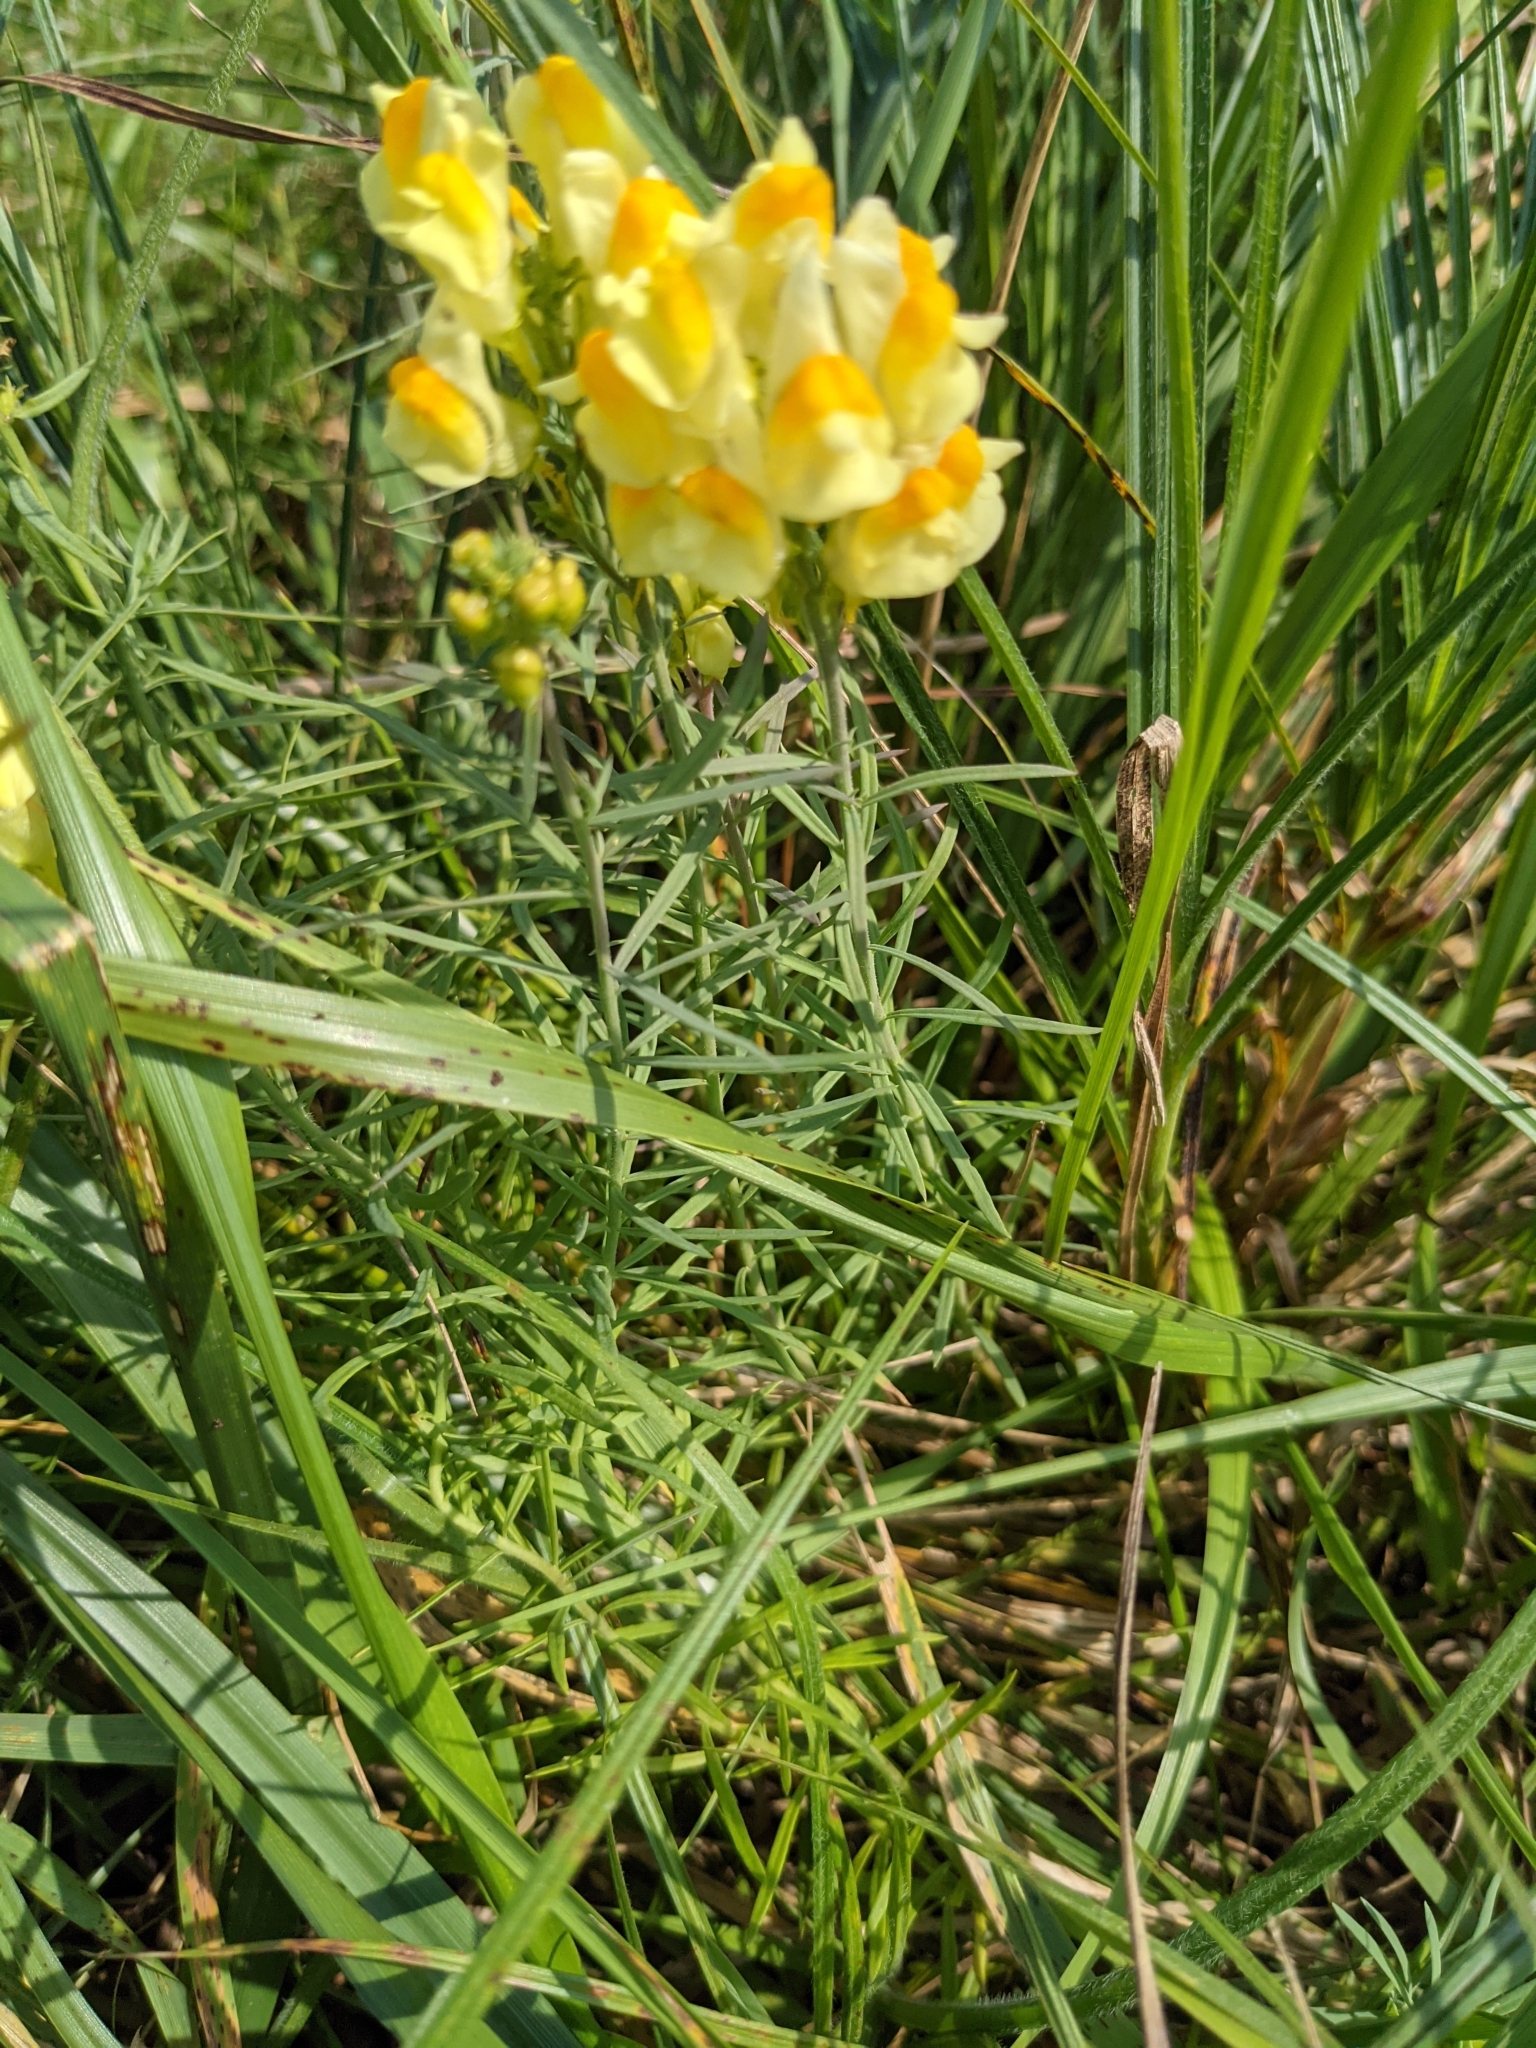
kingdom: Plantae
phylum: Tracheophyta
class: Magnoliopsida
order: Lamiales
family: Plantaginaceae
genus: Linaria
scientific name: Linaria vulgaris
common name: Butter and eggs
